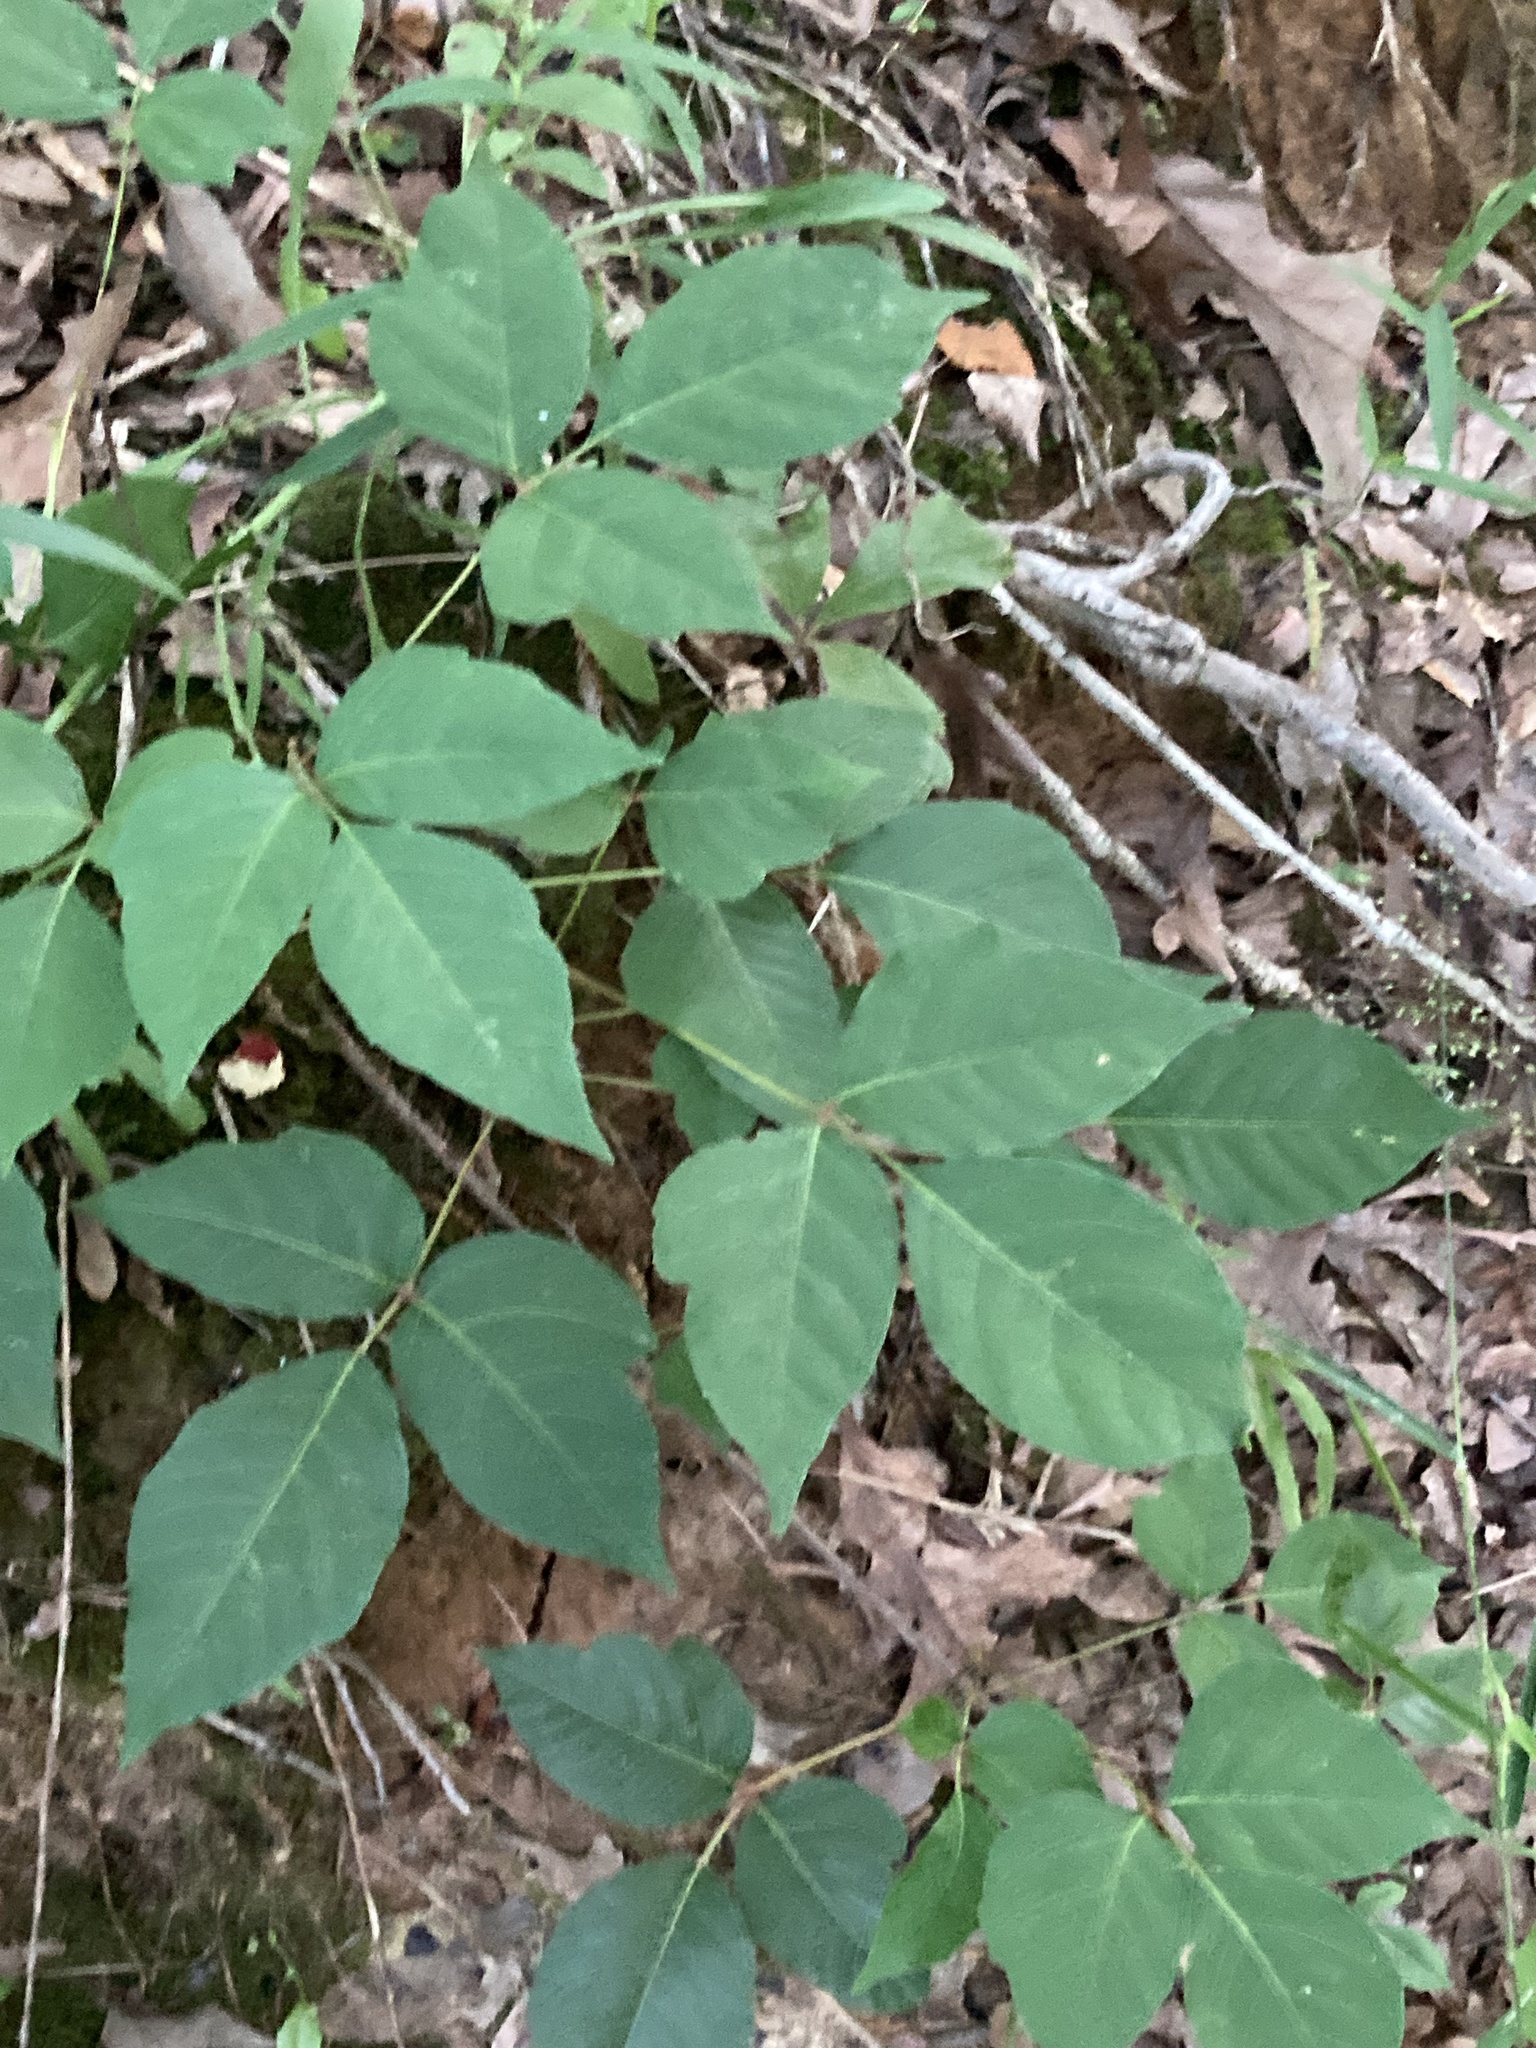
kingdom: Plantae
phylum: Tracheophyta
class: Magnoliopsida
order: Sapindales
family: Anacardiaceae
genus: Toxicodendron
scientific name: Toxicodendron radicans
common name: Poison ivy
